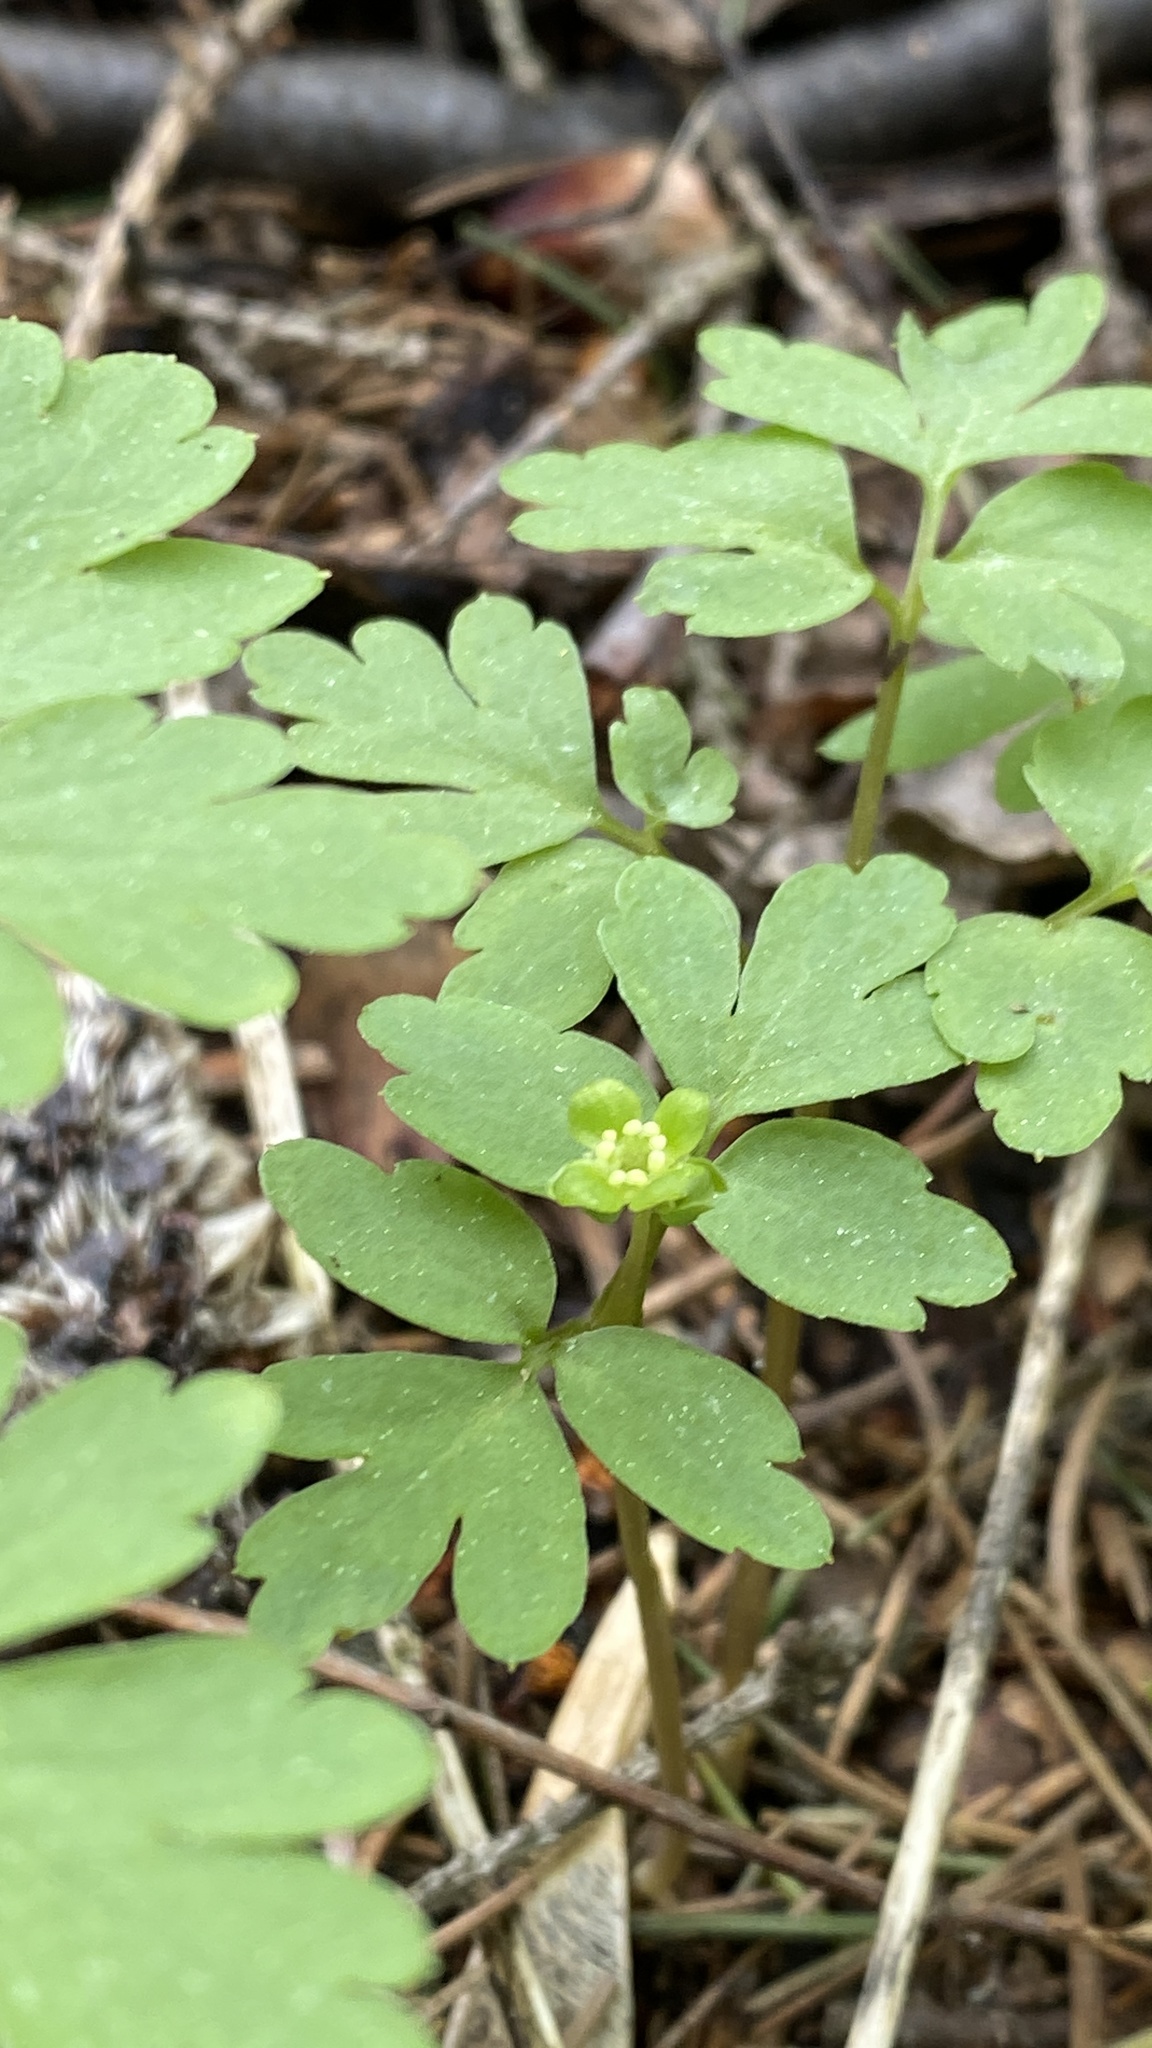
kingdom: Plantae
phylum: Tracheophyta
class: Magnoliopsida
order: Dipsacales
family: Viburnaceae
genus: Adoxa
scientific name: Adoxa moschatellina
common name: Moschatel
